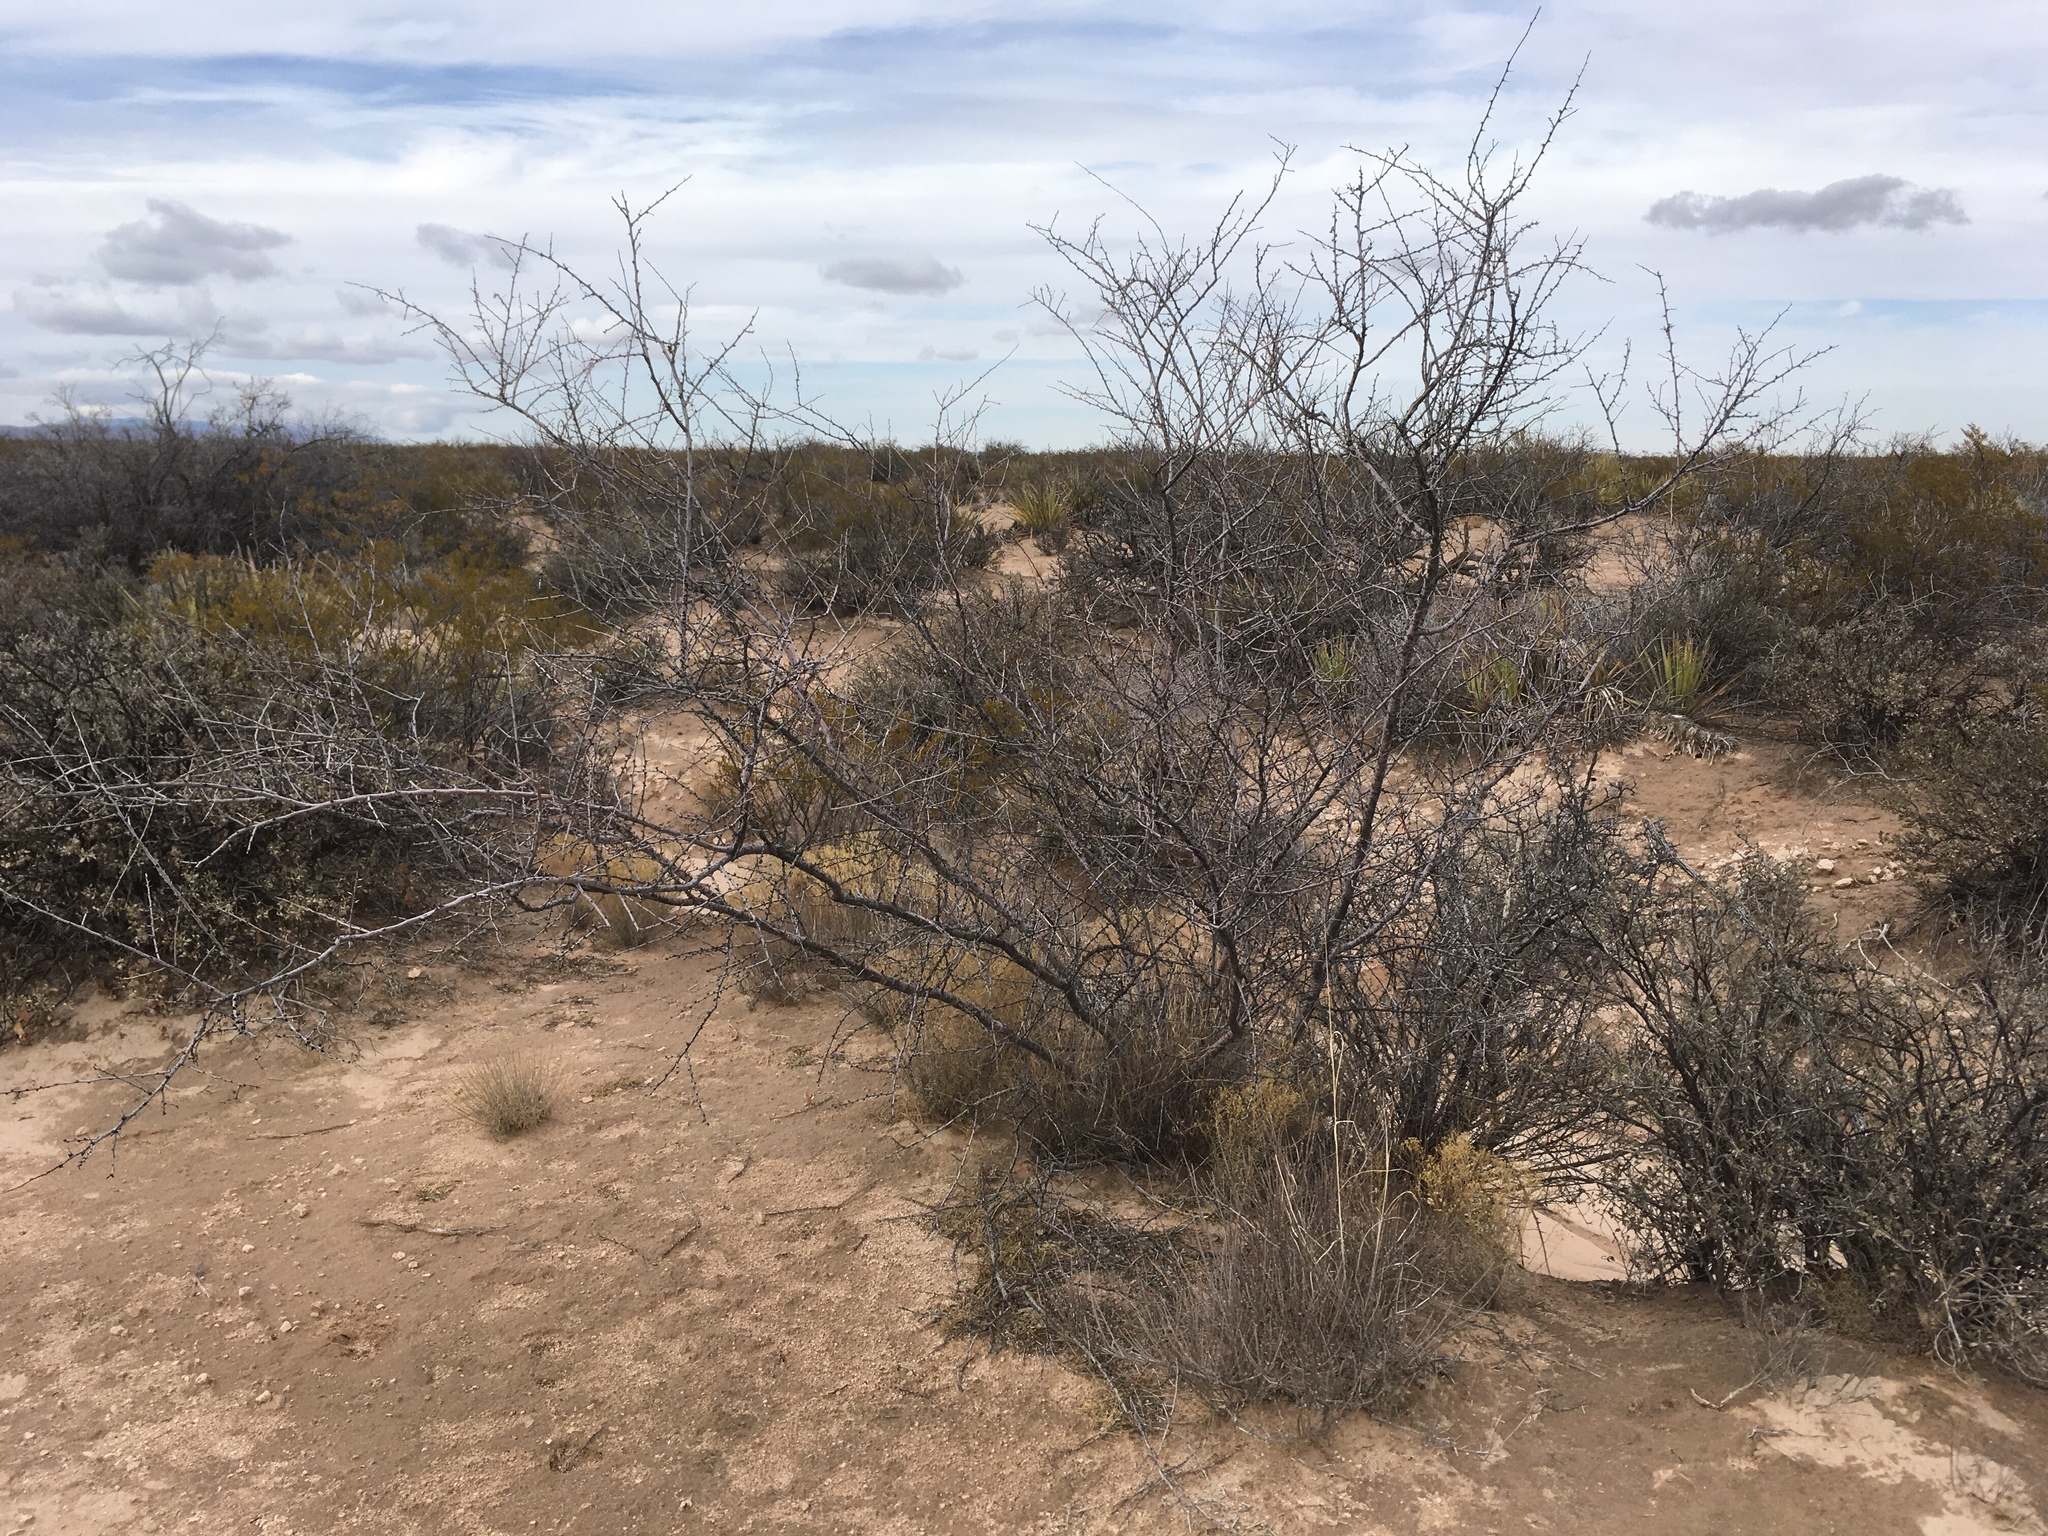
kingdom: Plantae
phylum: Tracheophyta
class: Magnoliopsida
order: Fabales
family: Fabaceae
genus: Vachellia
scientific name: Vachellia vernicosa
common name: Viscid acacia
